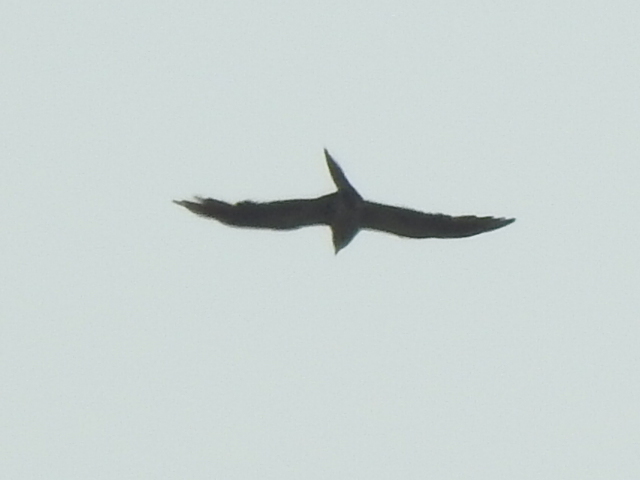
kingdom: Animalia
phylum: Chordata
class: Aves
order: Accipitriformes
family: Accipitridae
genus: Ictinia
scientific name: Ictinia mississippiensis
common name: Mississippi kite
